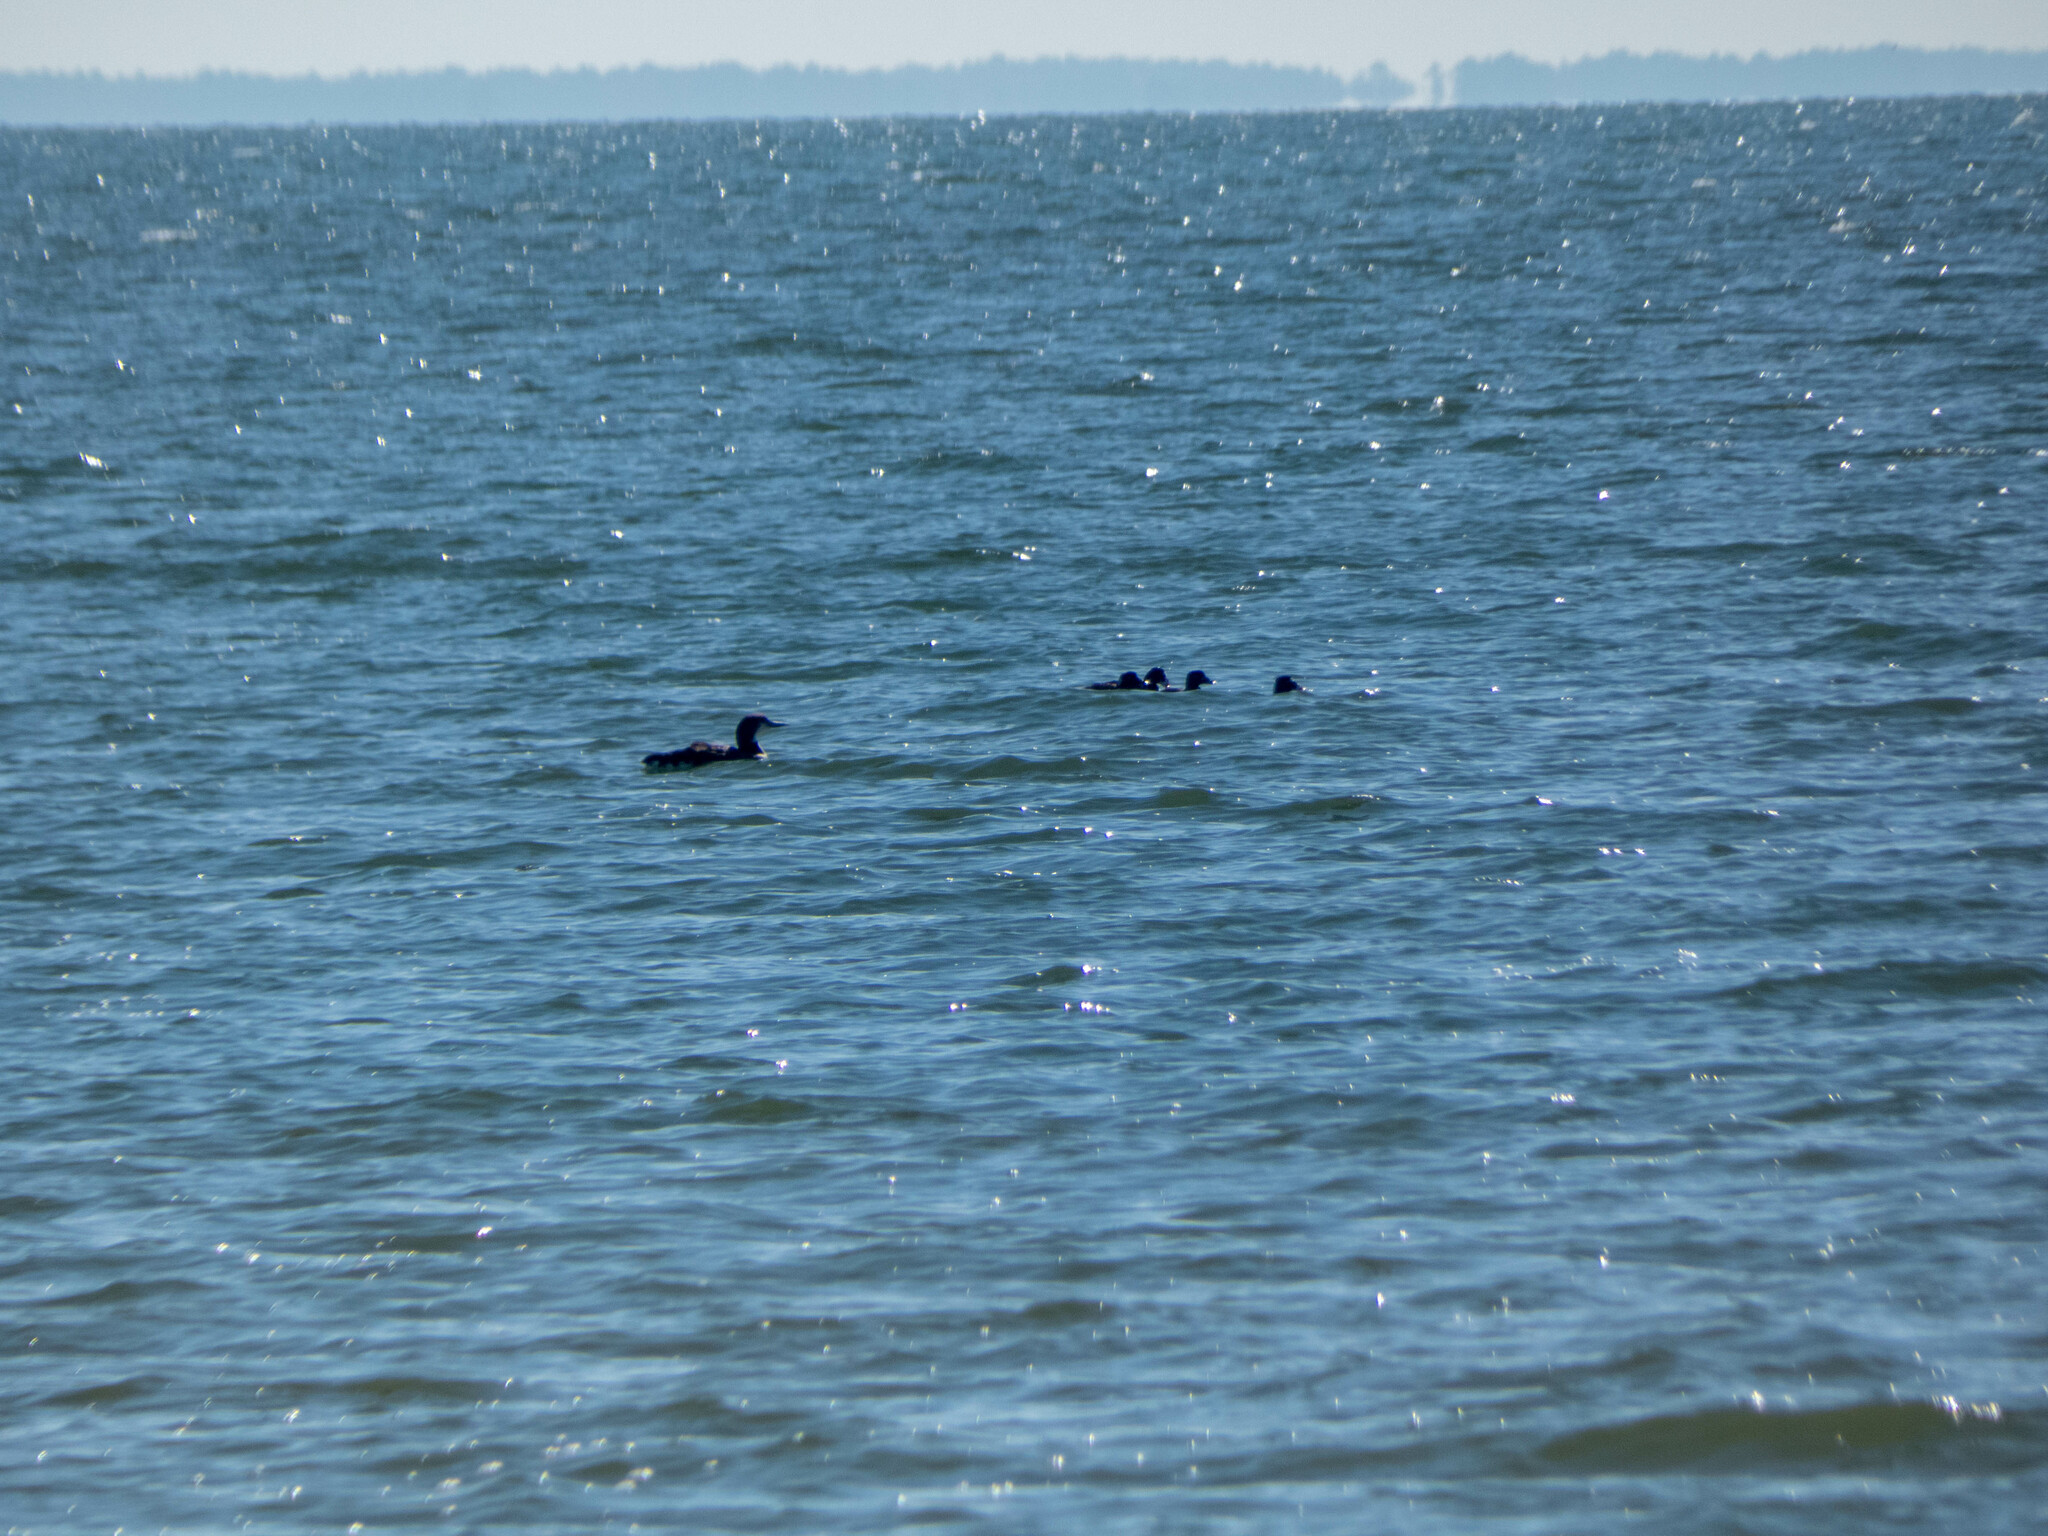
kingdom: Animalia
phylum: Chordata
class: Aves
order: Gaviiformes
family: Gaviidae
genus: Gavia
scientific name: Gavia immer
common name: Common loon
